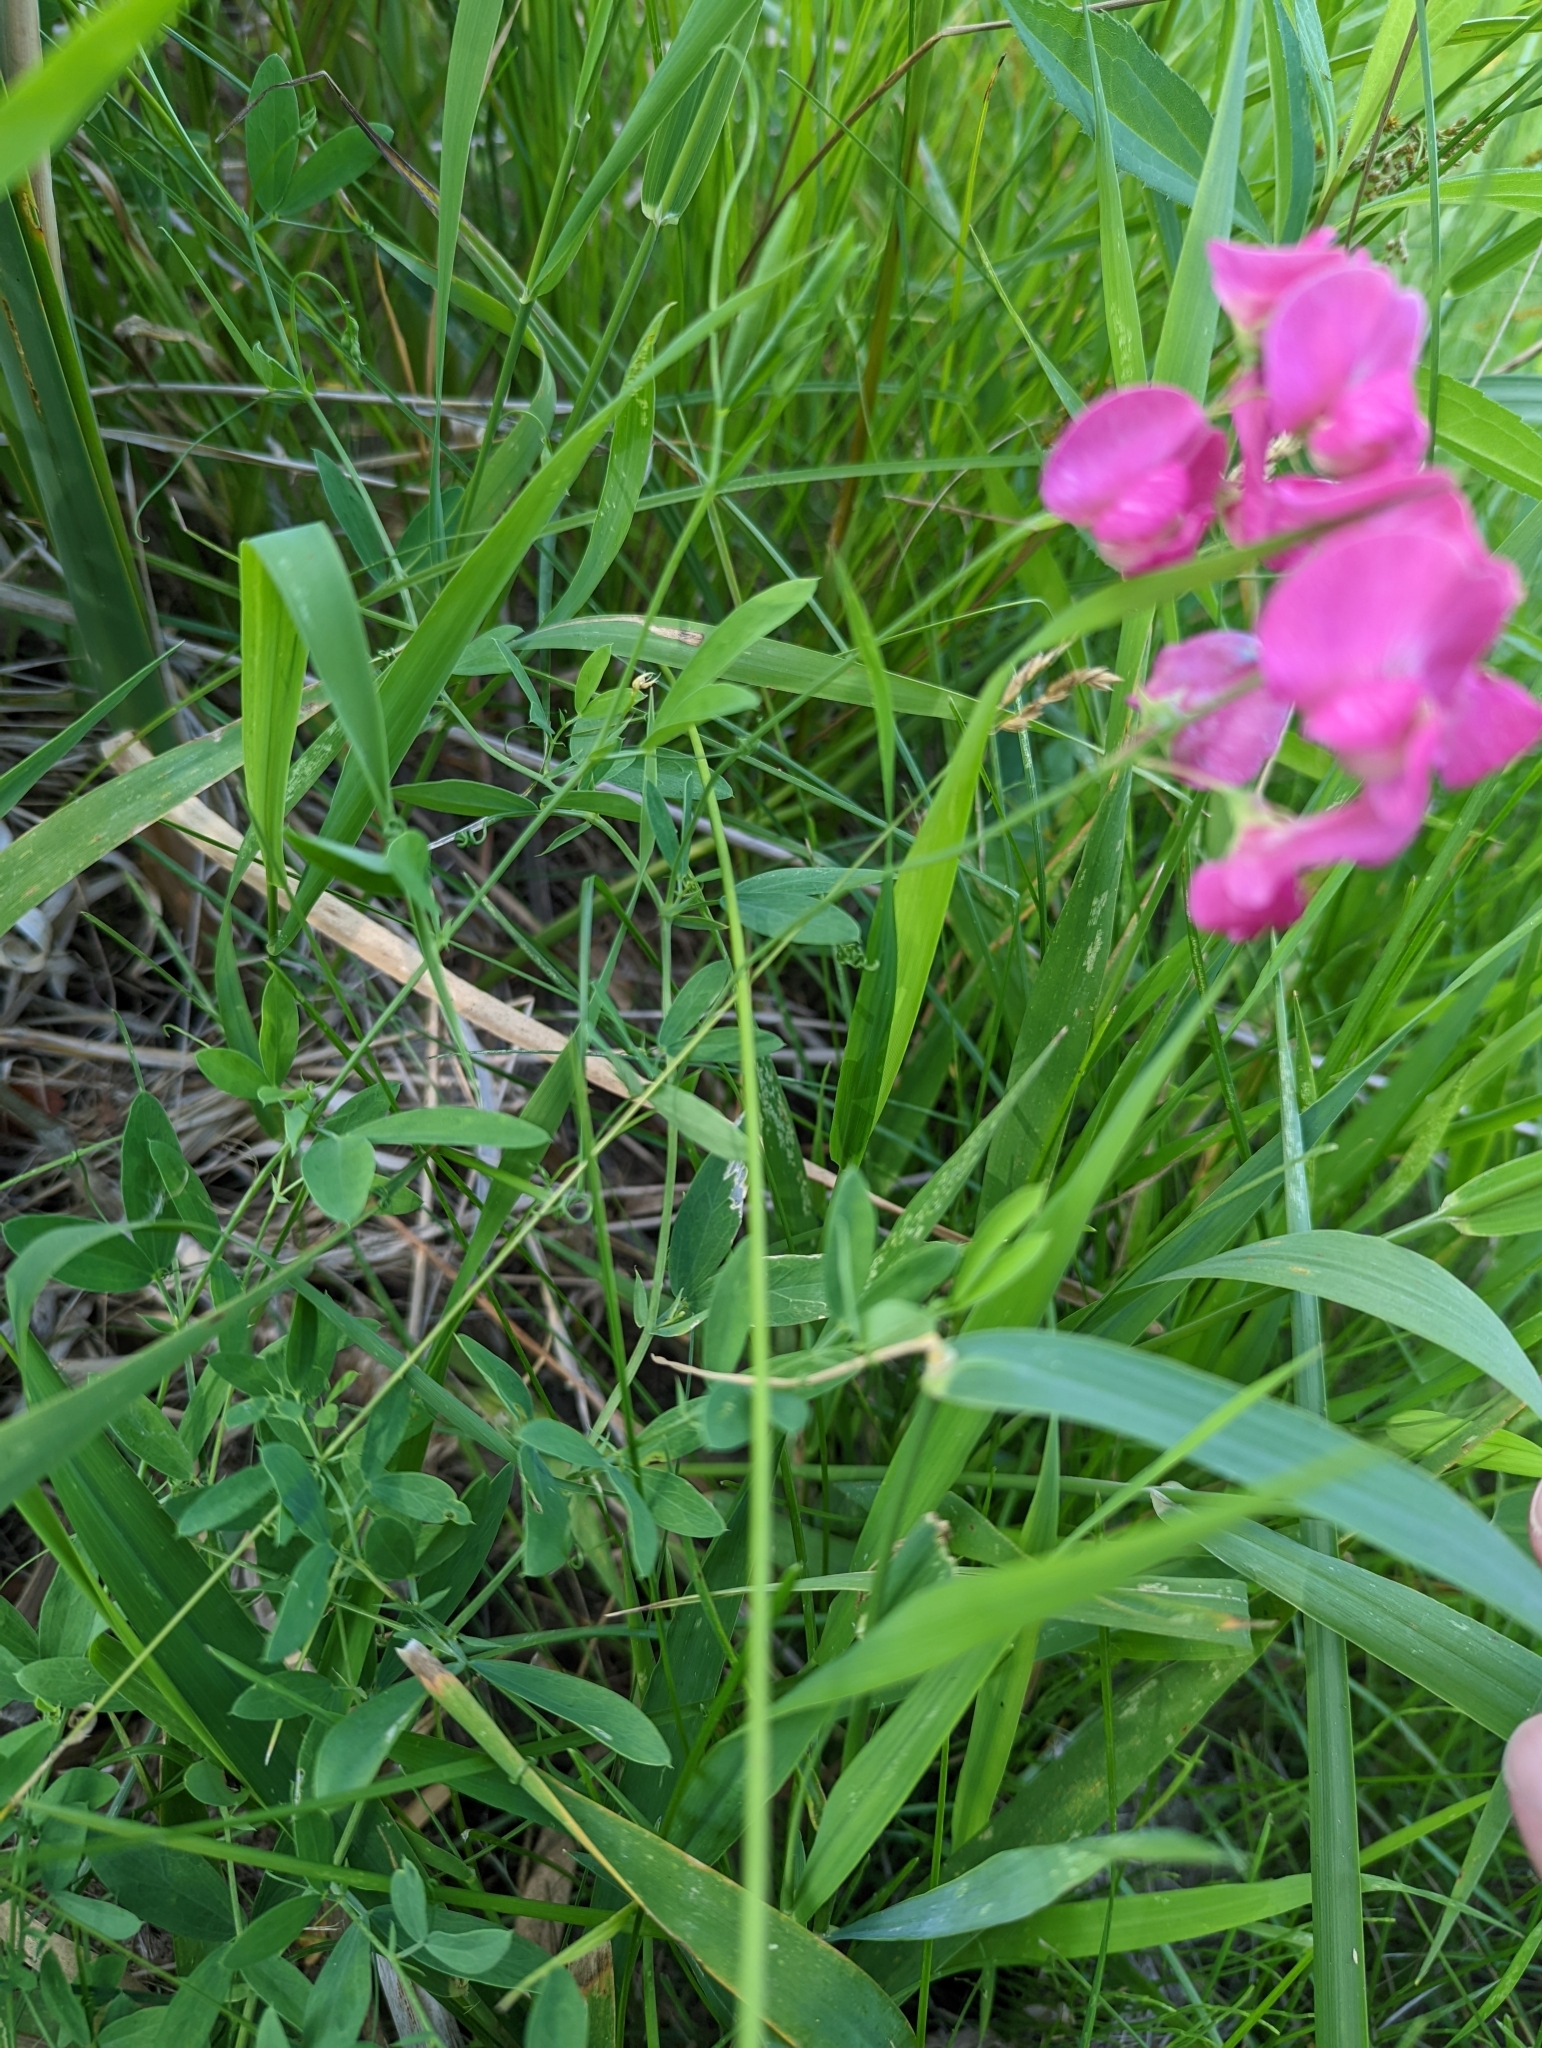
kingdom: Plantae
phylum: Tracheophyta
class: Magnoliopsida
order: Fabales
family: Fabaceae
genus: Lathyrus
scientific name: Lathyrus tuberosus
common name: Tuberous pea
